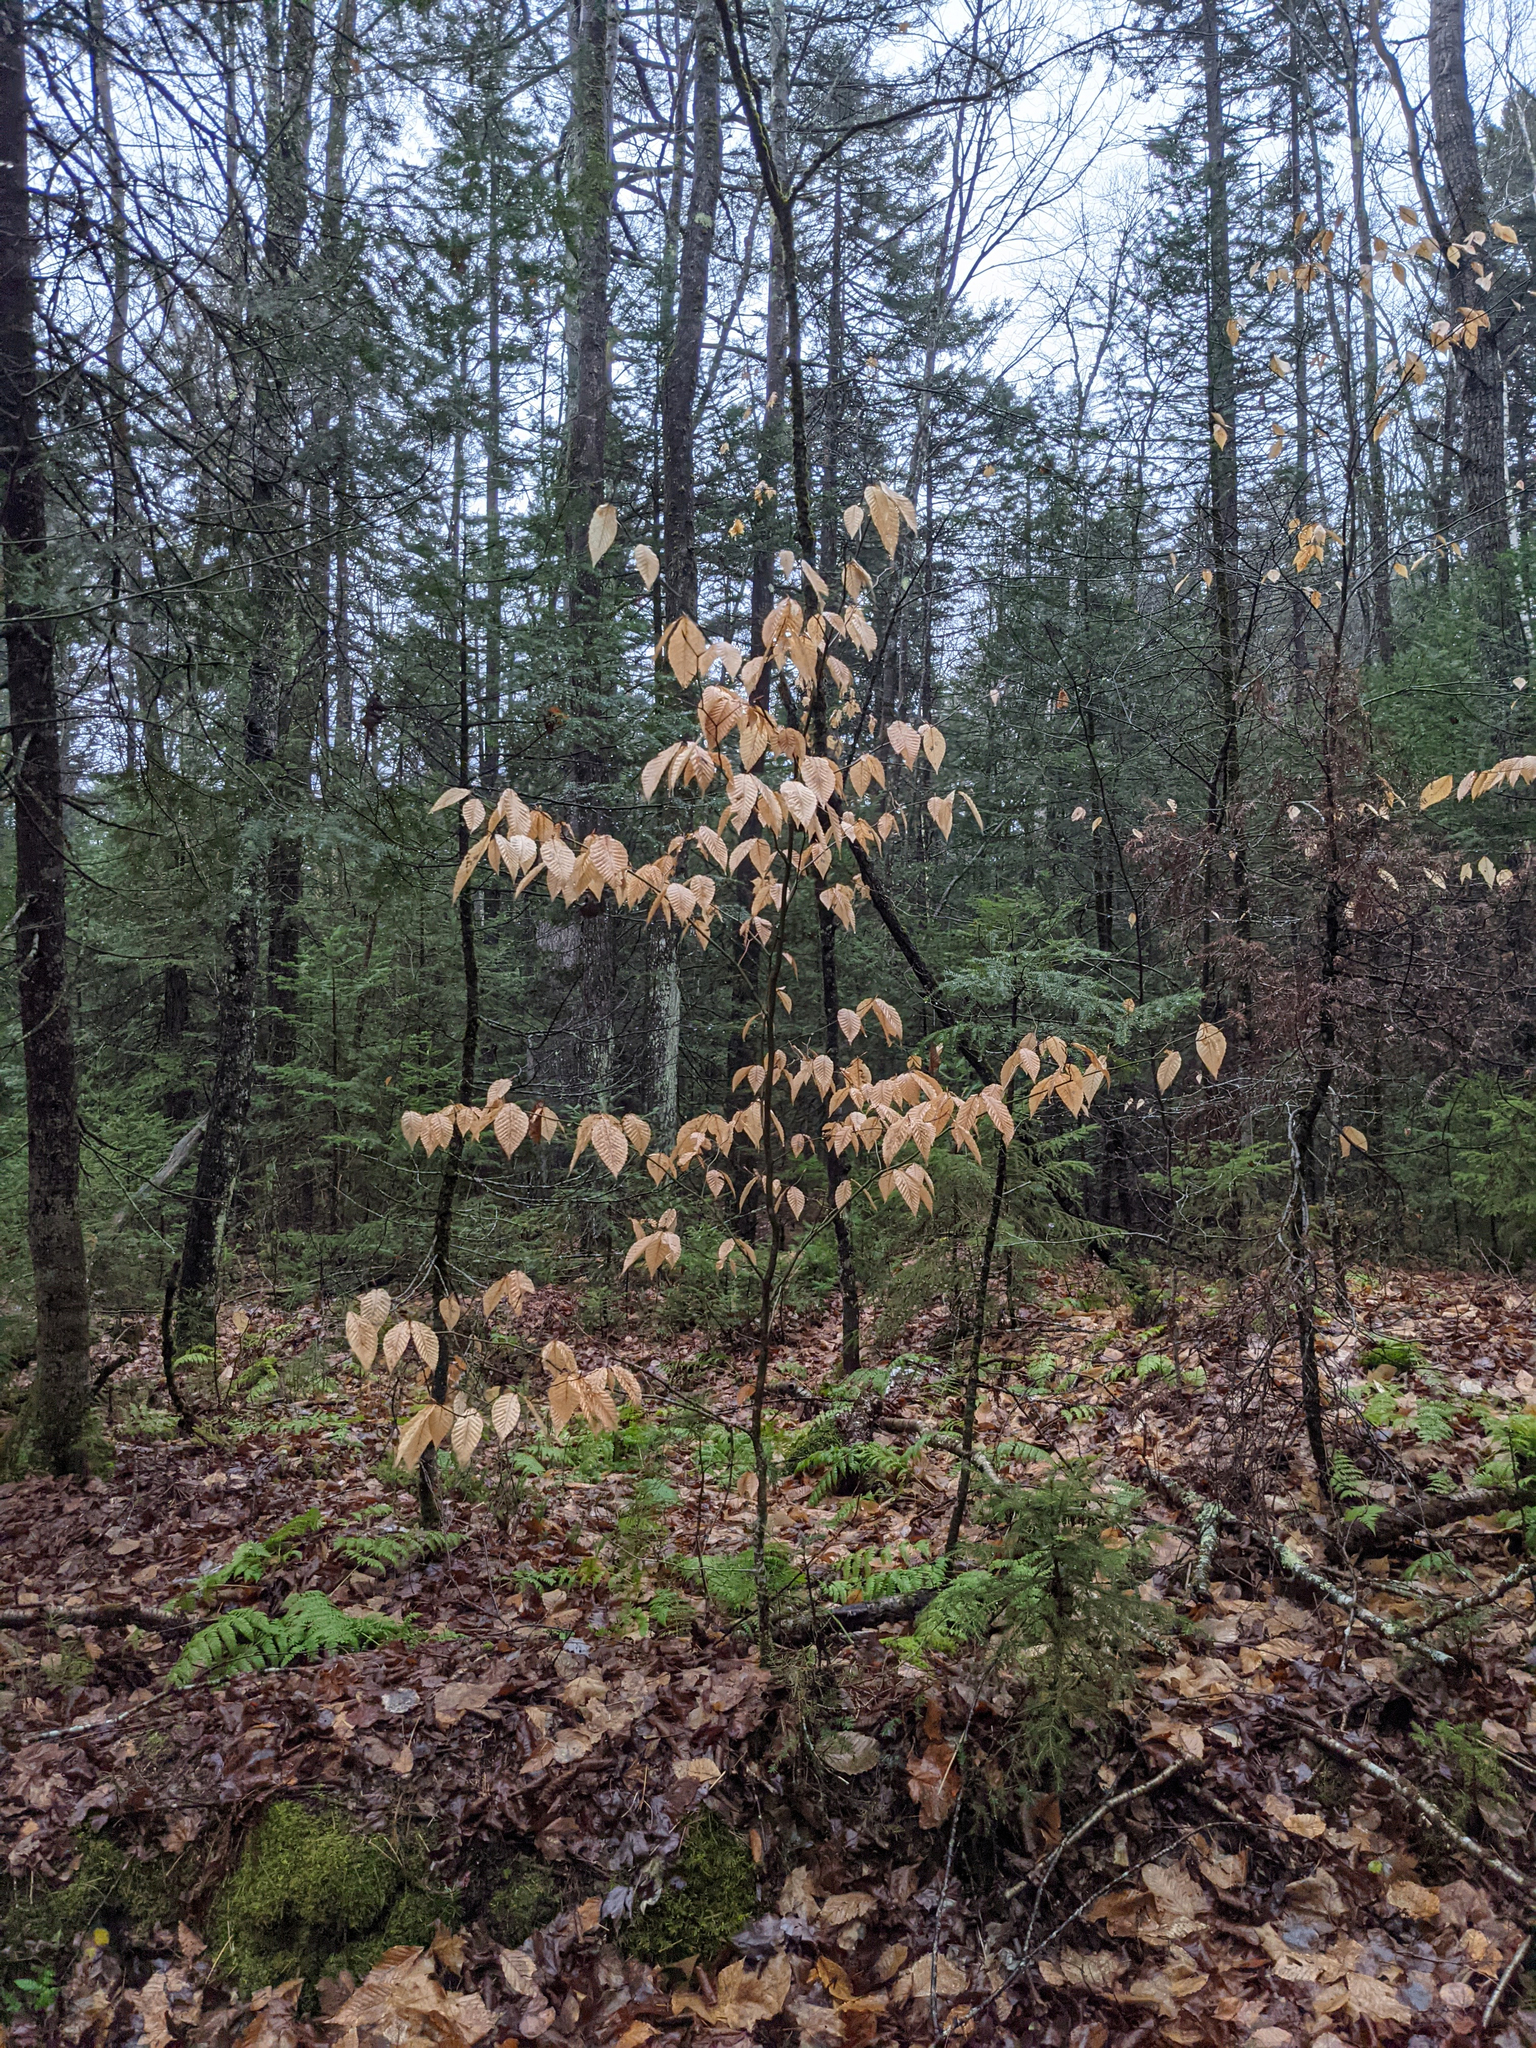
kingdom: Plantae
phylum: Tracheophyta
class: Magnoliopsida
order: Fagales
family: Fagaceae
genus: Fagus
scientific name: Fagus grandifolia
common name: American beech
